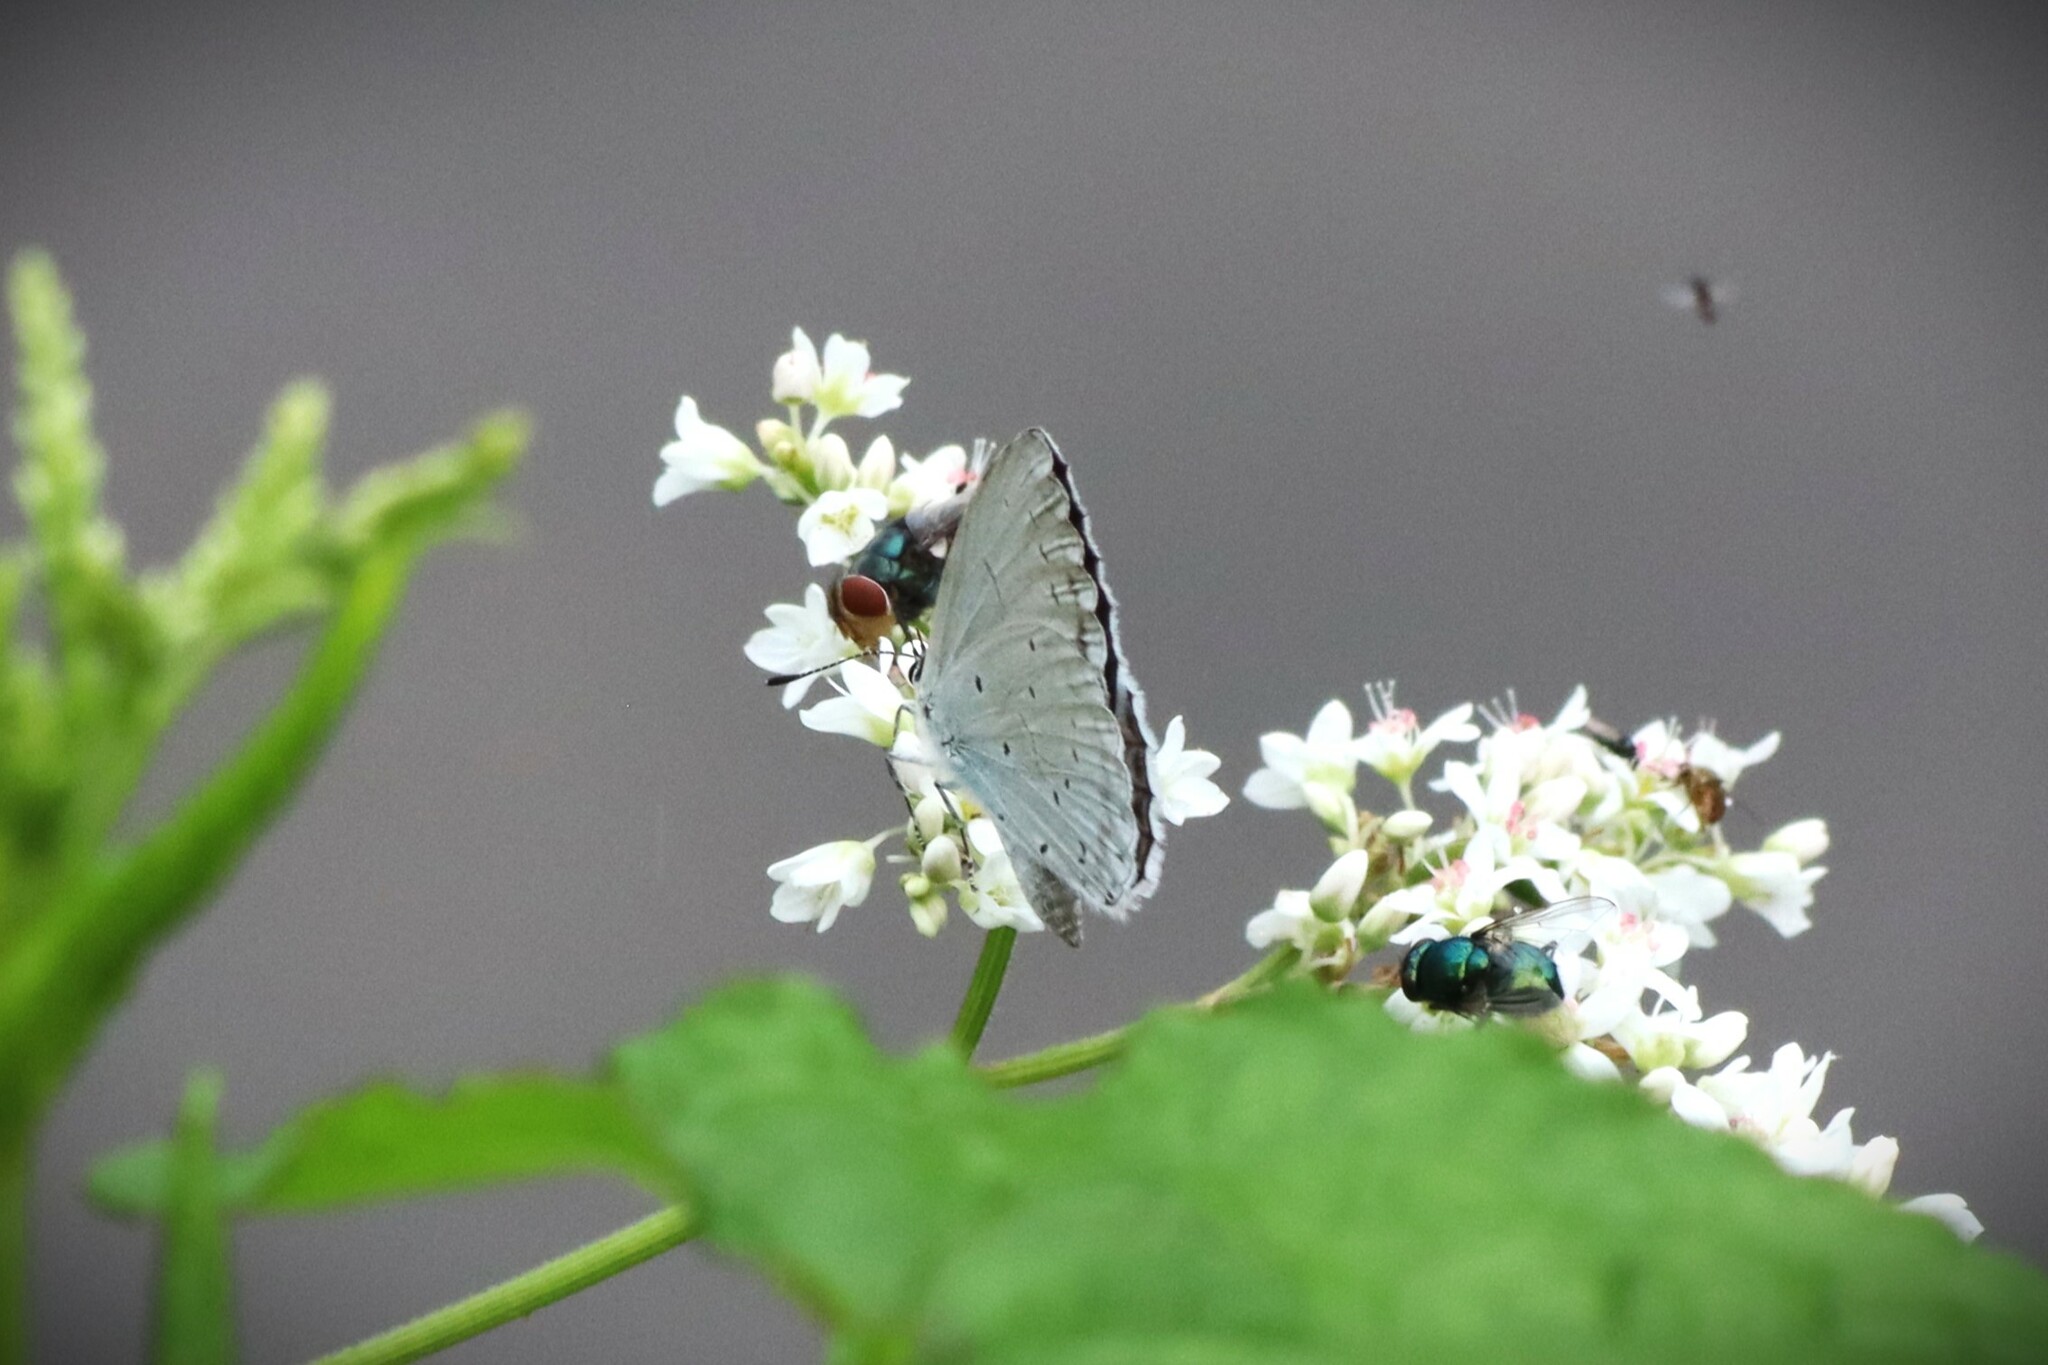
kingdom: Animalia
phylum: Arthropoda
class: Insecta
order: Lepidoptera
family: Lycaenidae
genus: Celastrina
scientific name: Celastrina gigas
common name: Silvery hedge blue
